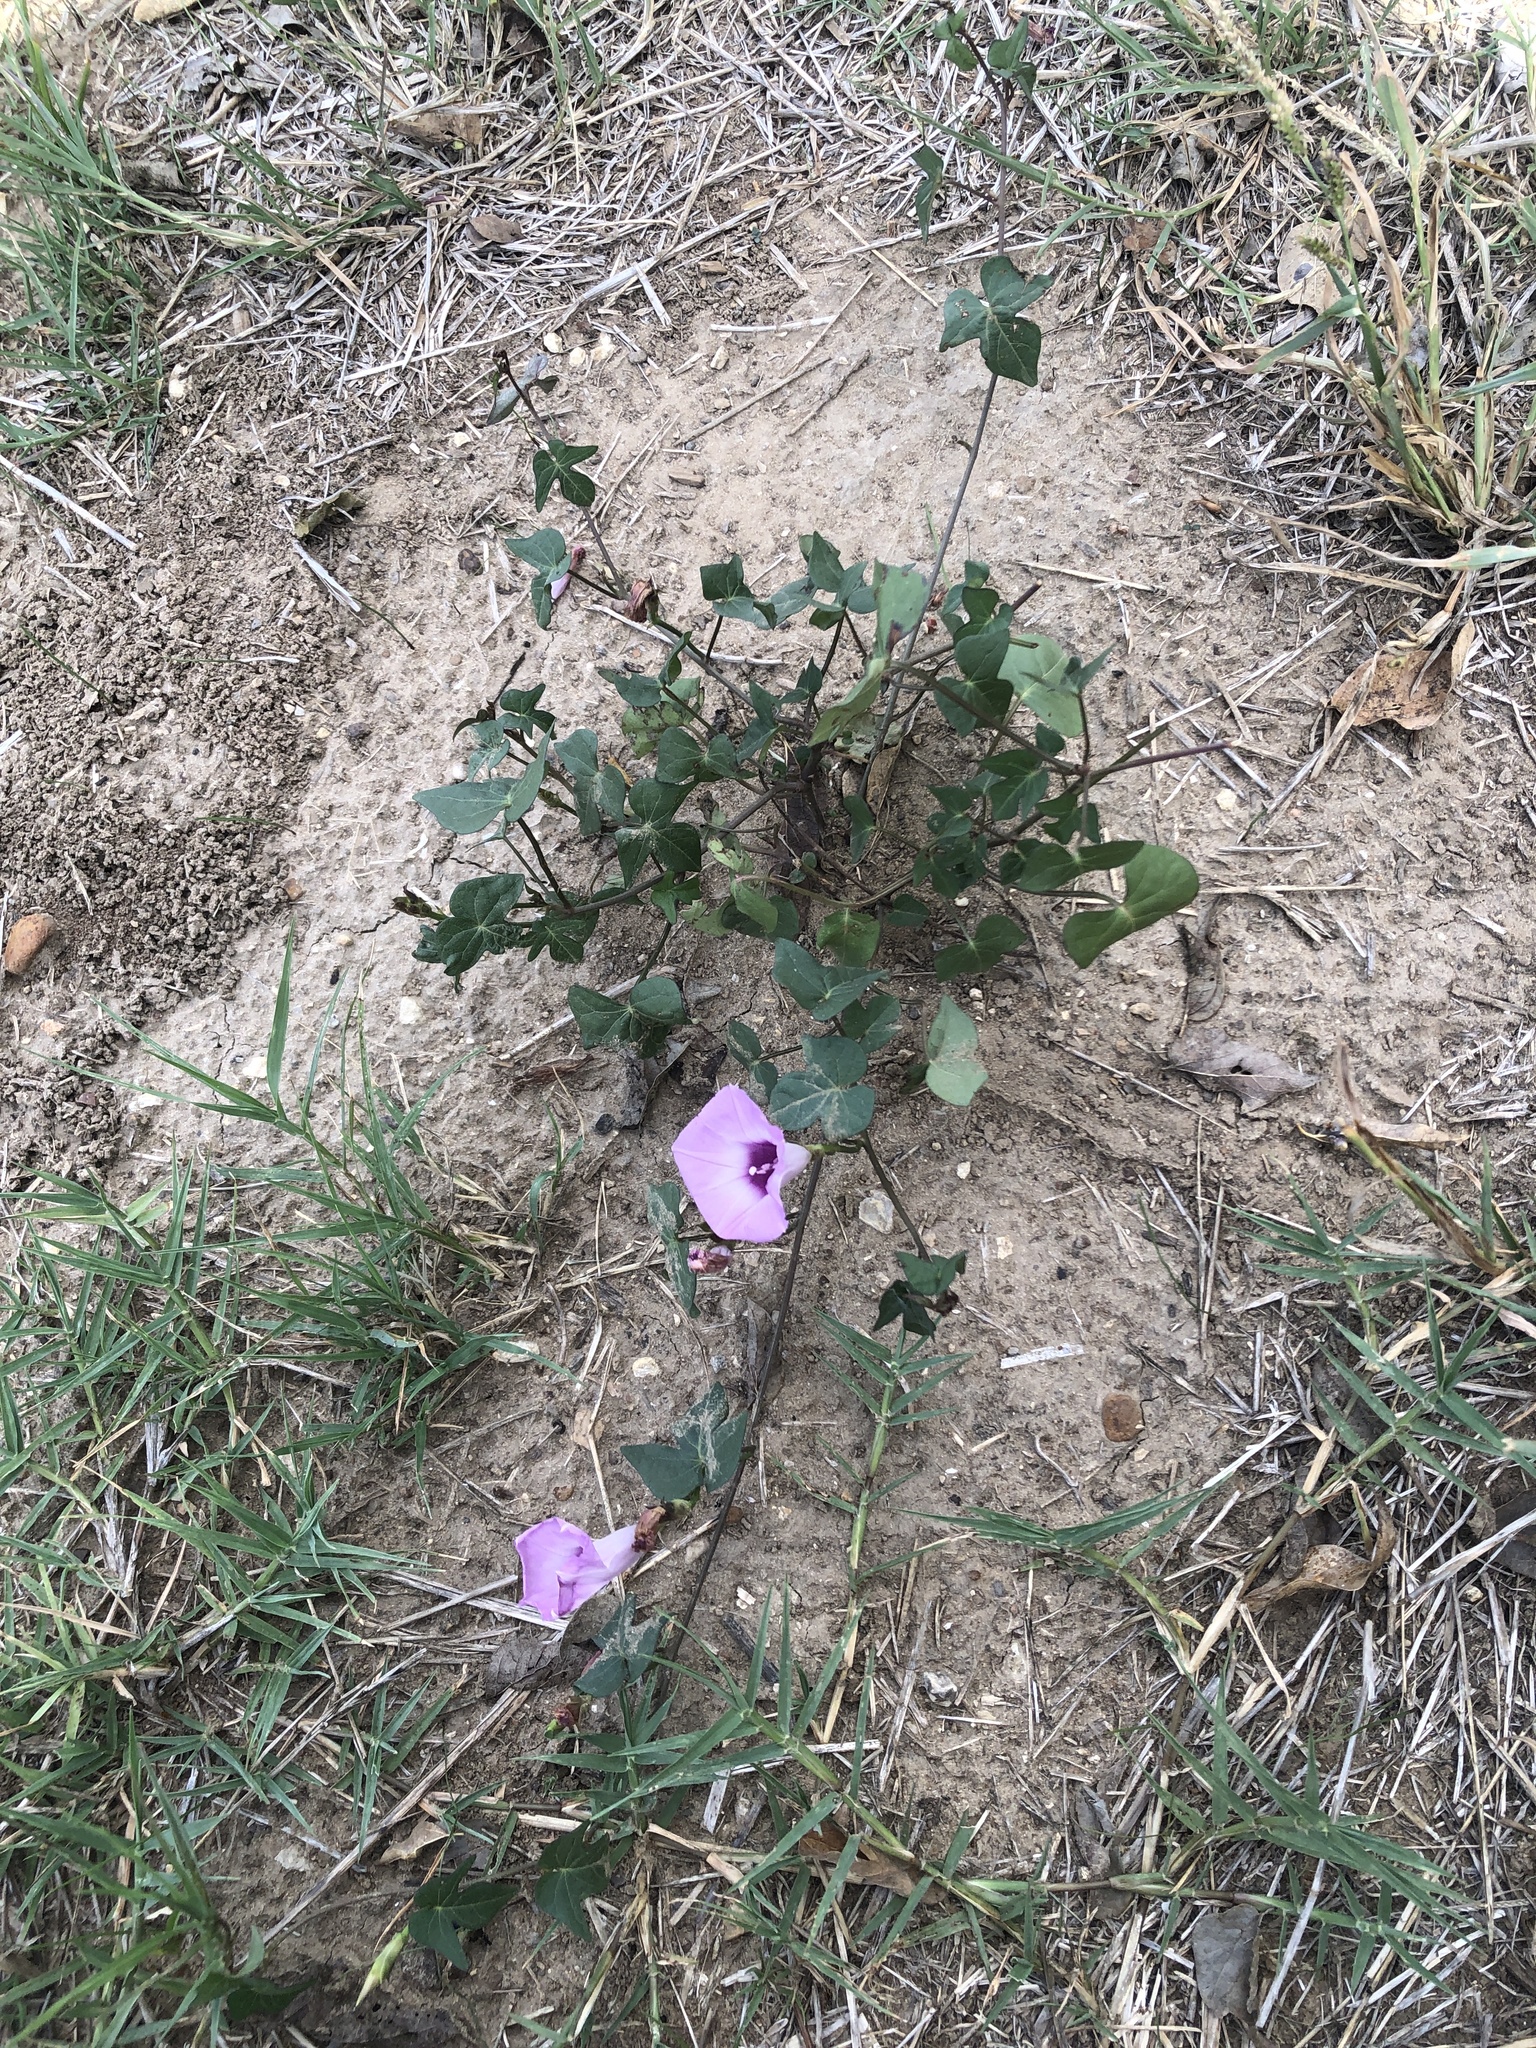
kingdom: Plantae
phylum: Tracheophyta
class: Magnoliopsida
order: Solanales
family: Convolvulaceae
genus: Ipomoea
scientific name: Ipomoea cordatotriloba
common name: Cotton morning glory
